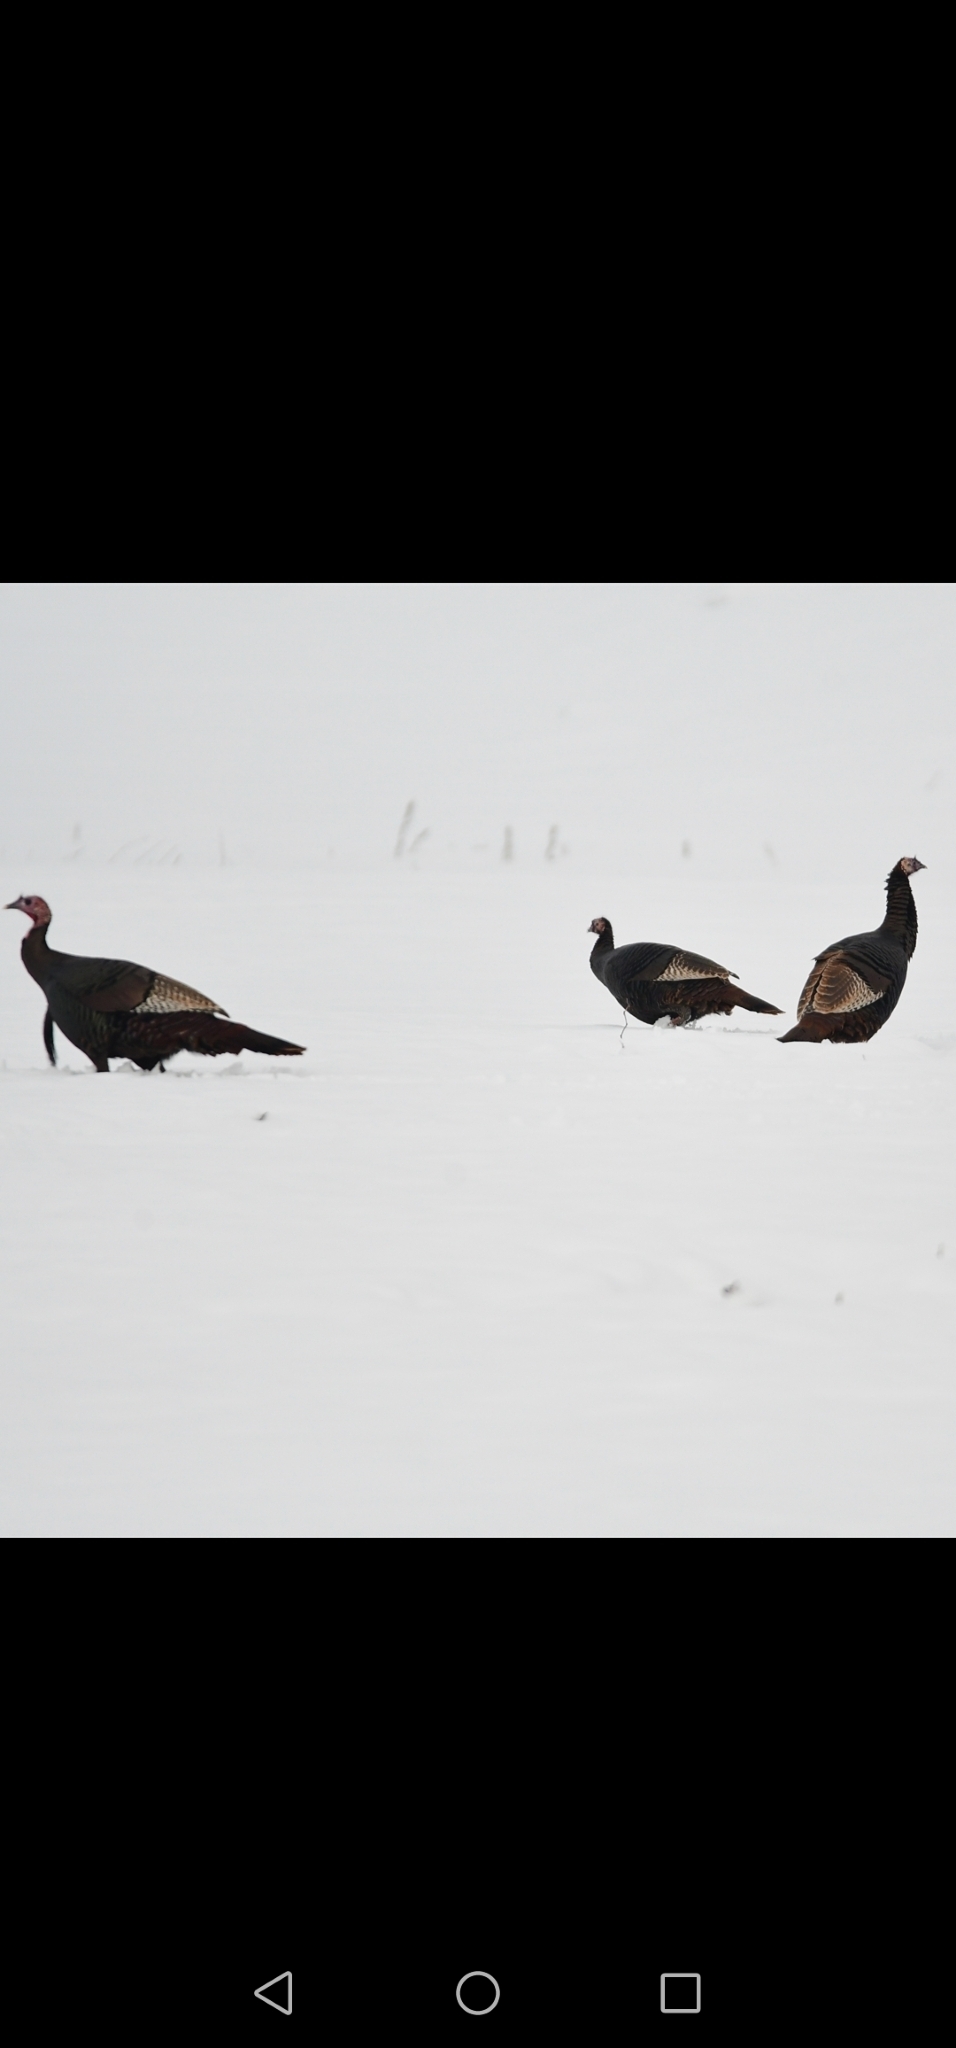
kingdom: Animalia
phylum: Chordata
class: Aves
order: Galliformes
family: Phasianidae
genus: Meleagris
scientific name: Meleagris gallopavo
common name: Wild turkey
